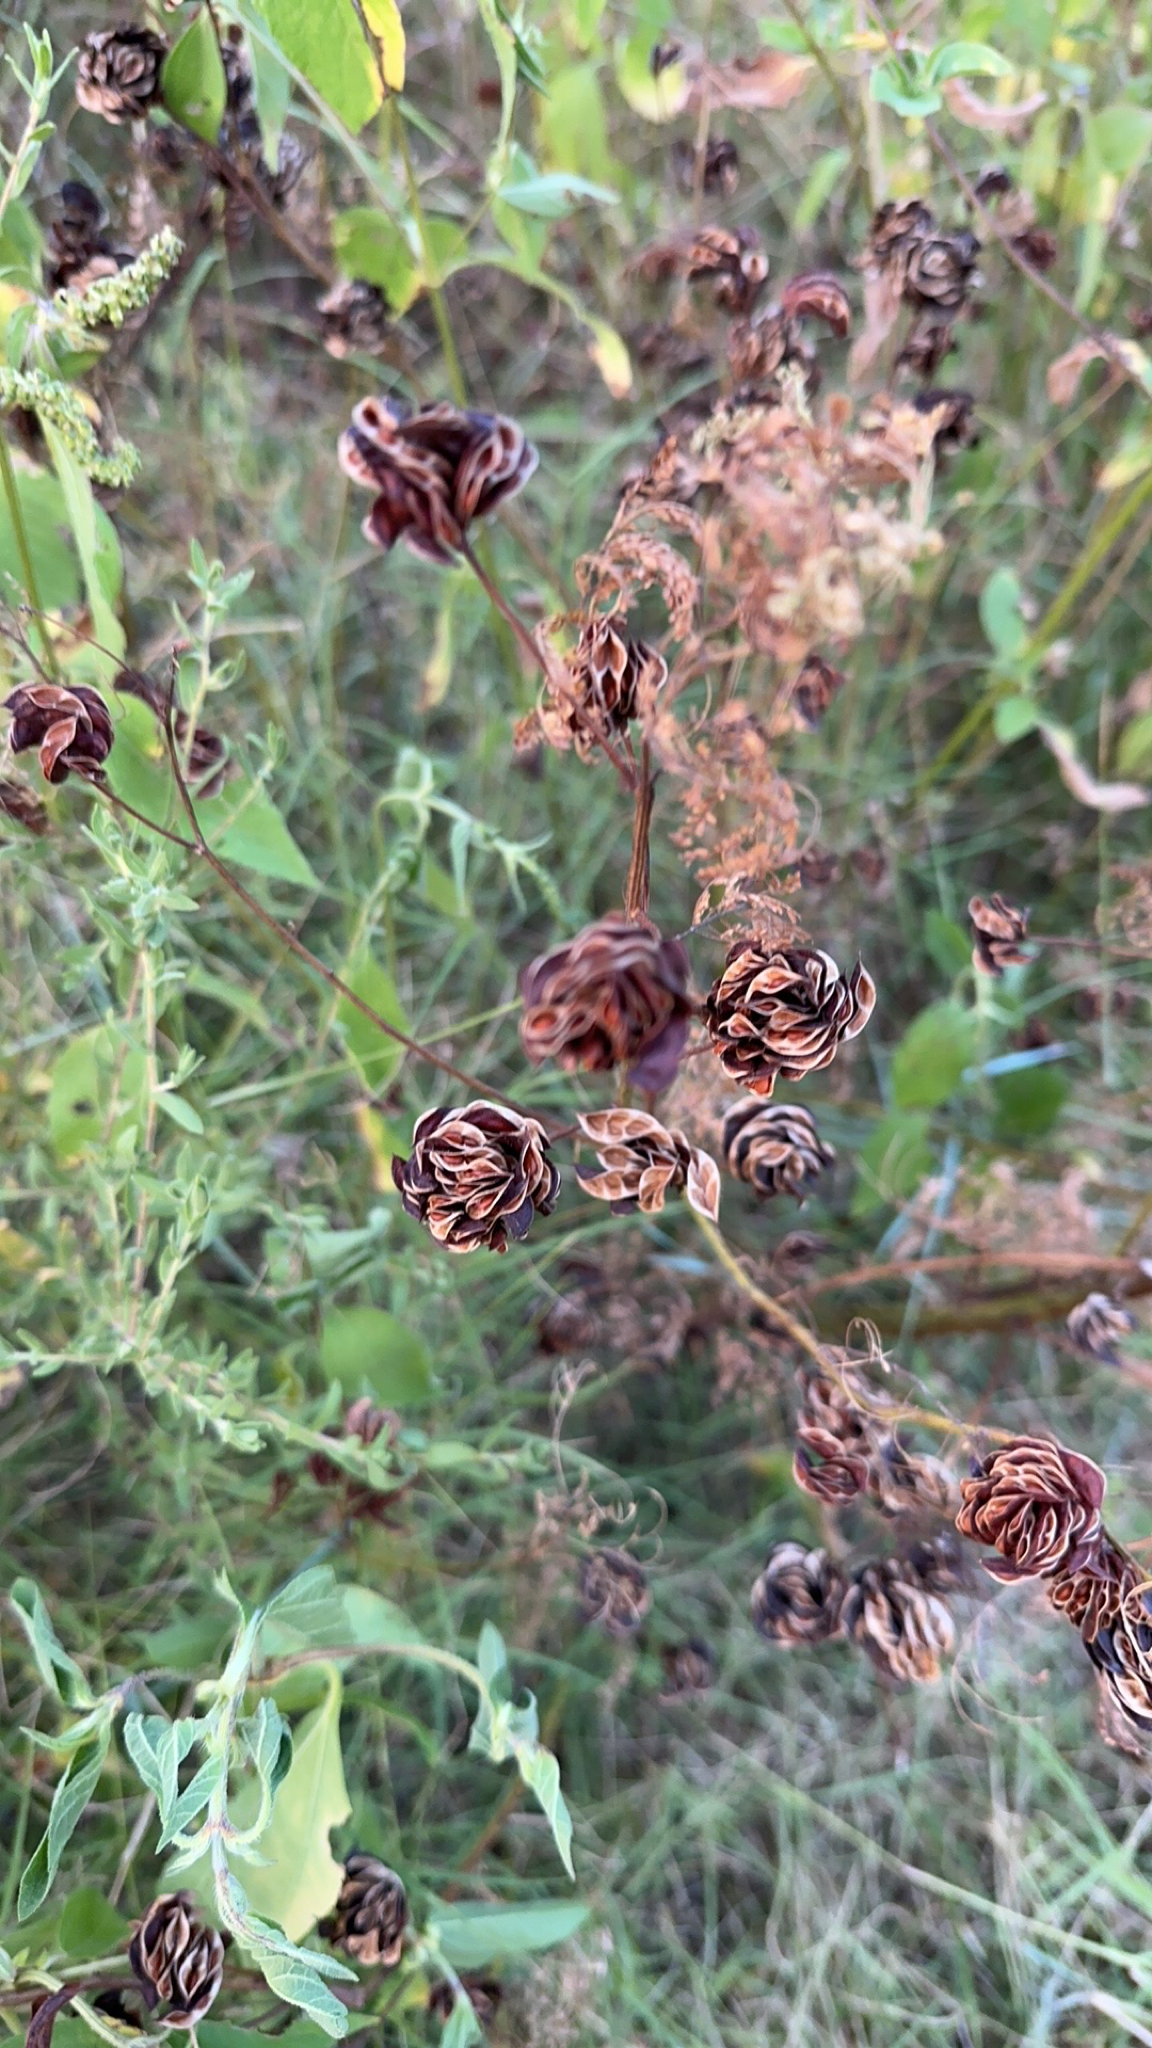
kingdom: Plantae
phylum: Tracheophyta
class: Magnoliopsida
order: Fabales
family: Fabaceae
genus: Desmanthus
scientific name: Desmanthus illinoensis
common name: Illinois bundle-flower
